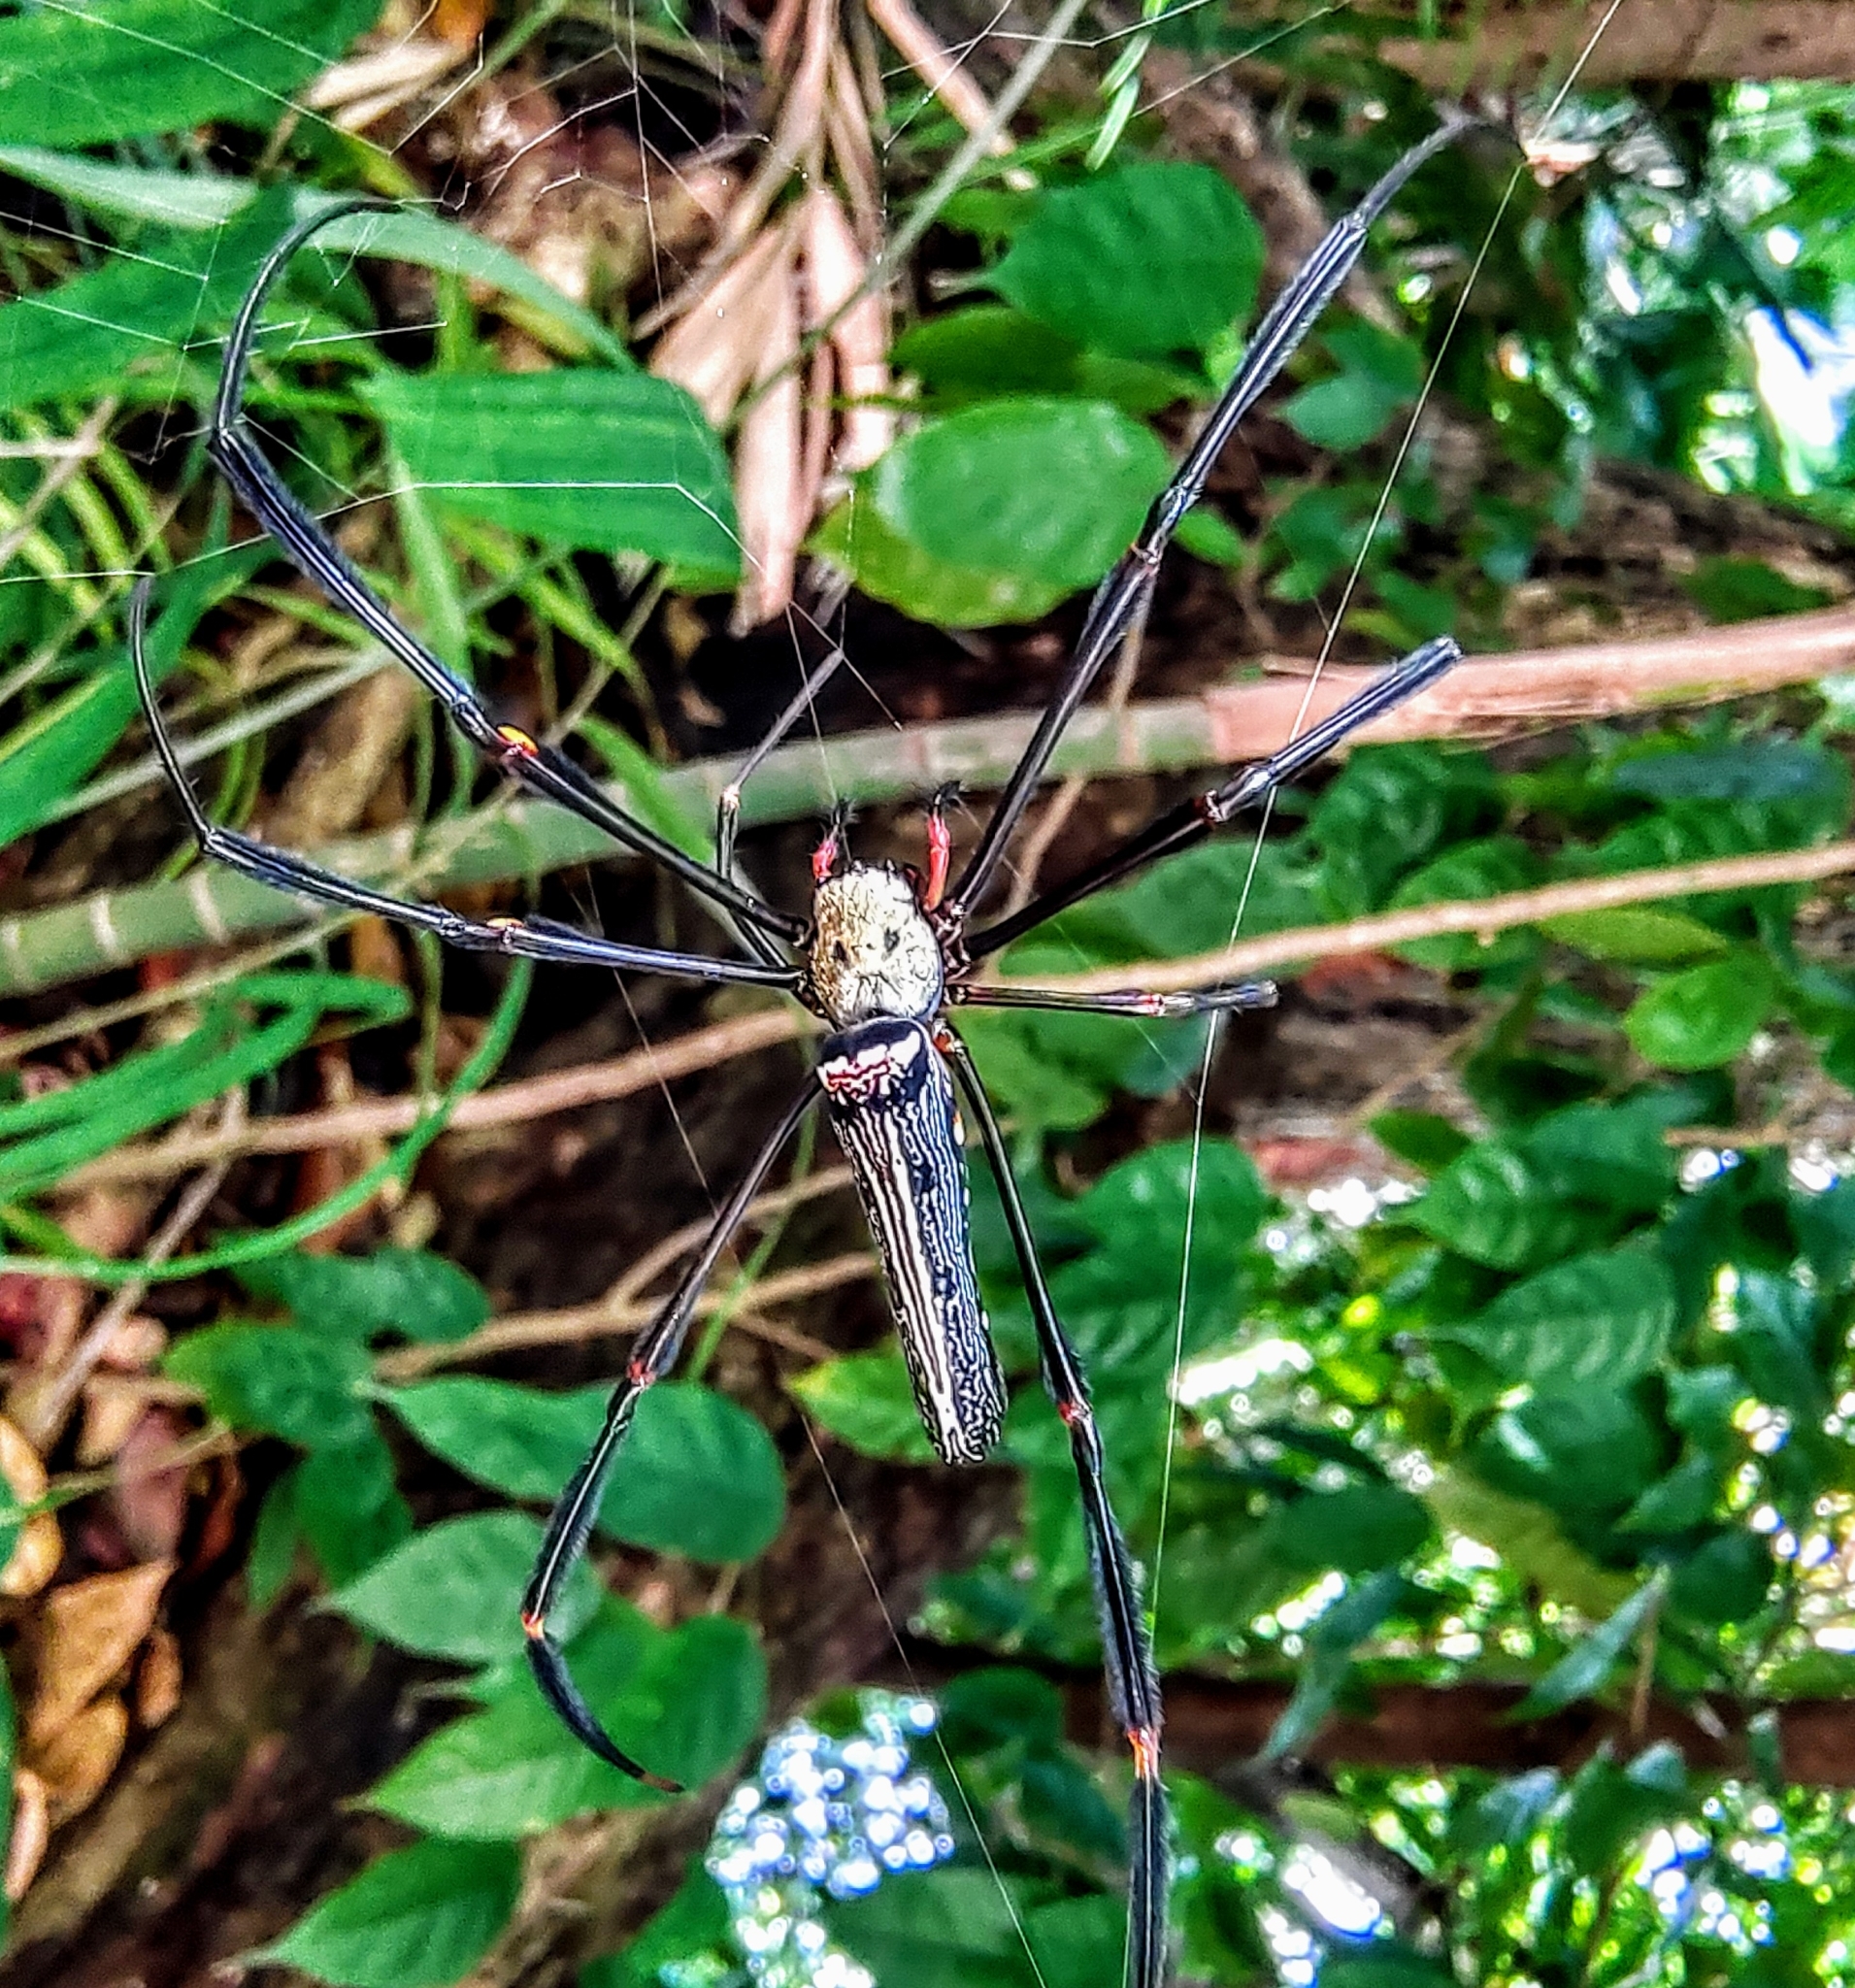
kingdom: Animalia
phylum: Arthropoda
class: Arachnida
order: Araneae
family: Araneidae
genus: Nephila
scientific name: Nephila pilipes
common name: Giant golden orb weaver
